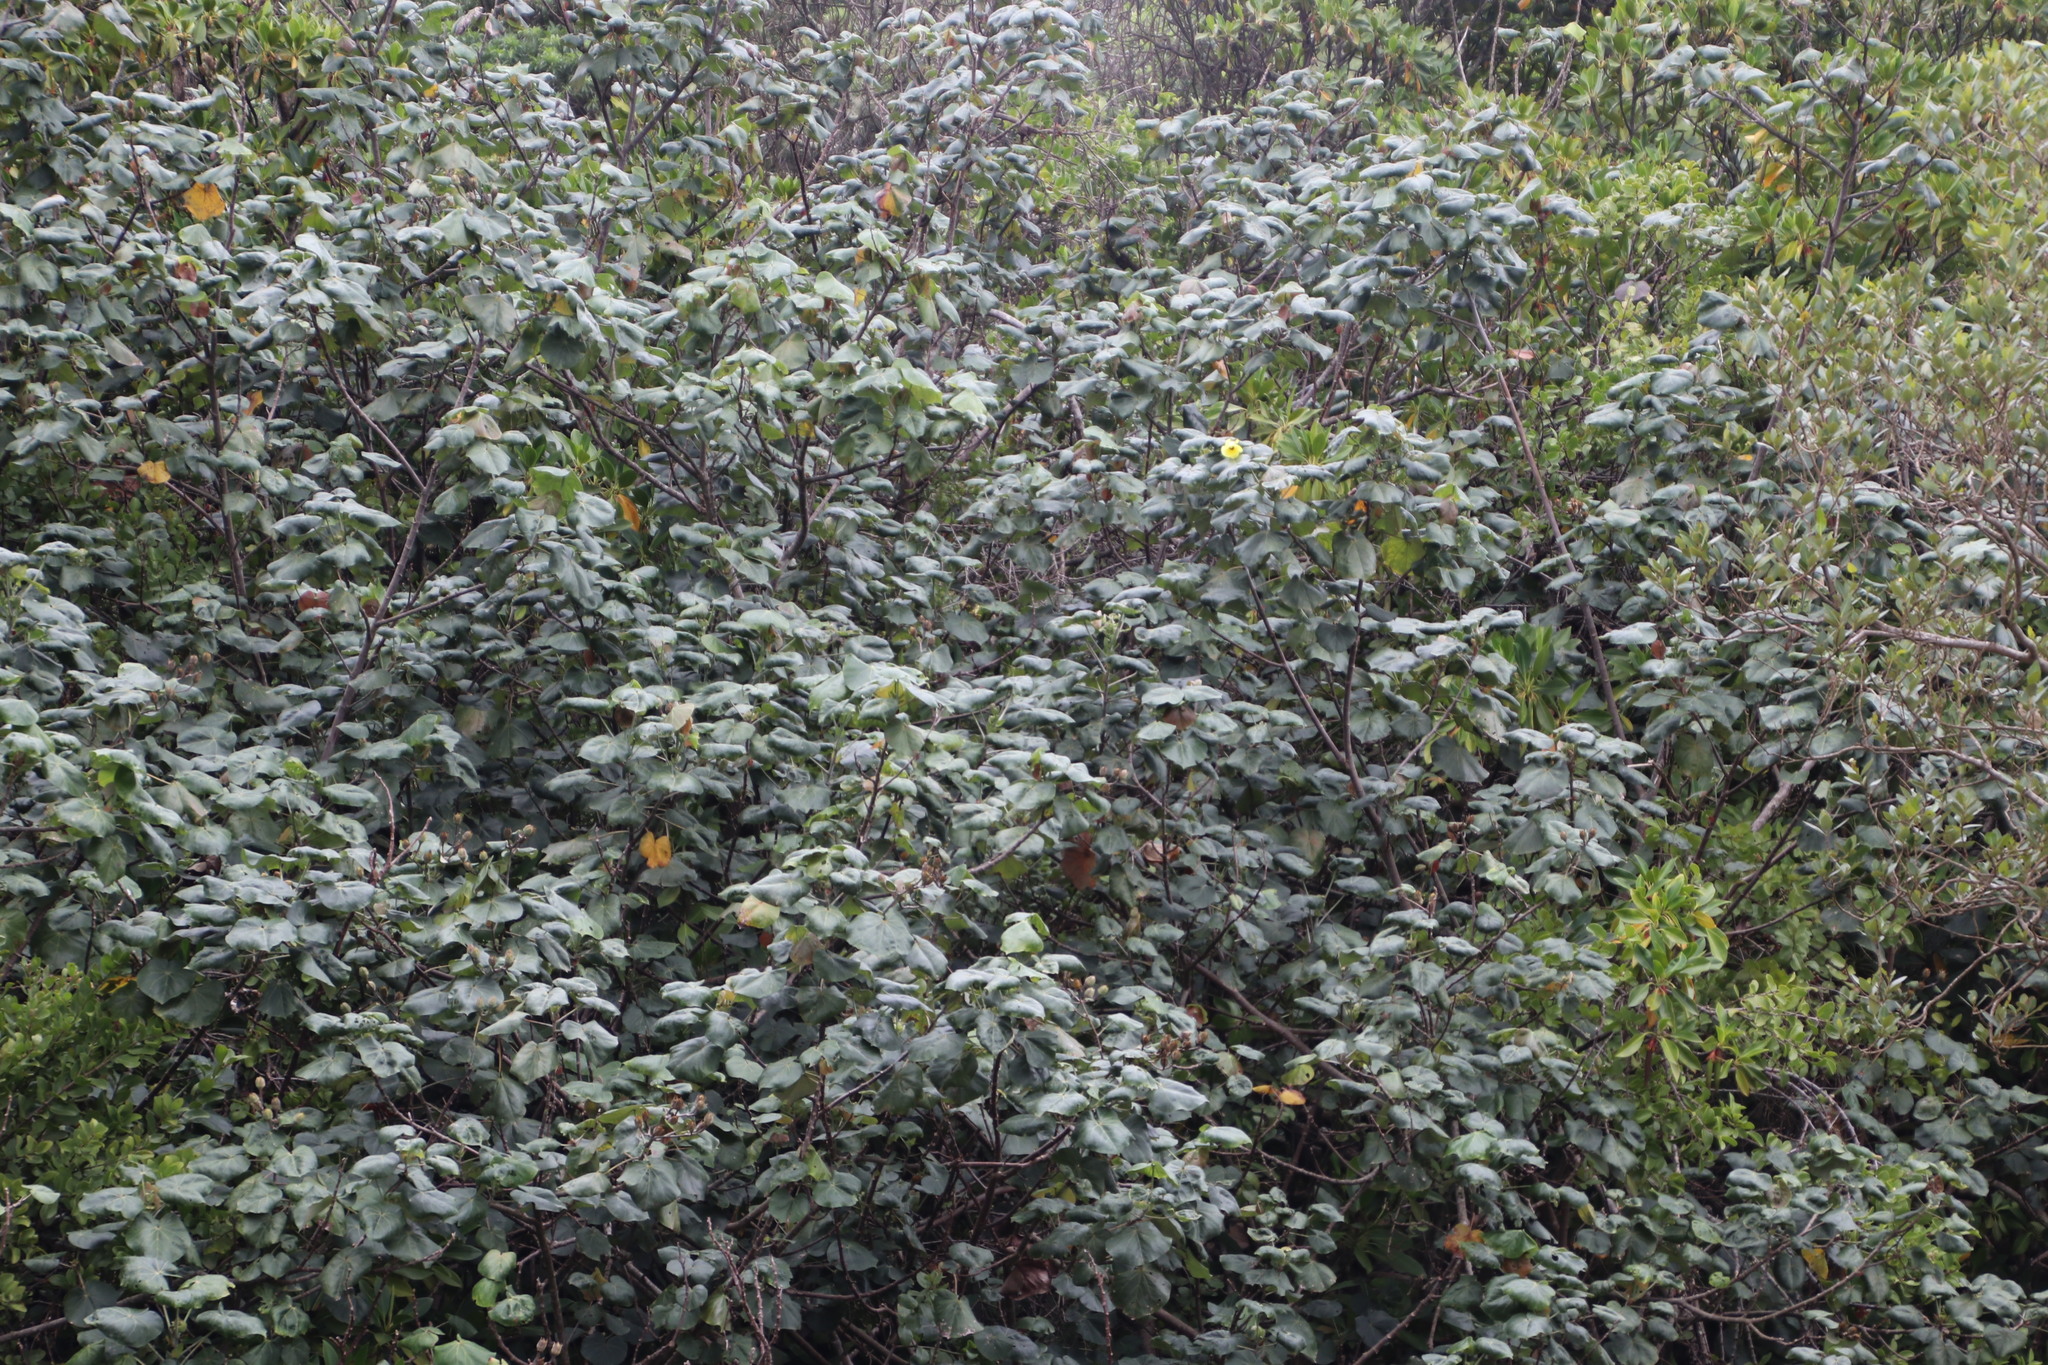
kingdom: Plantae
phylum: Tracheophyta
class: Magnoliopsida
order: Malvales
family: Malvaceae
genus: Talipariti
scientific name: Talipariti tiliaceum
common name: Sea hibiscus
